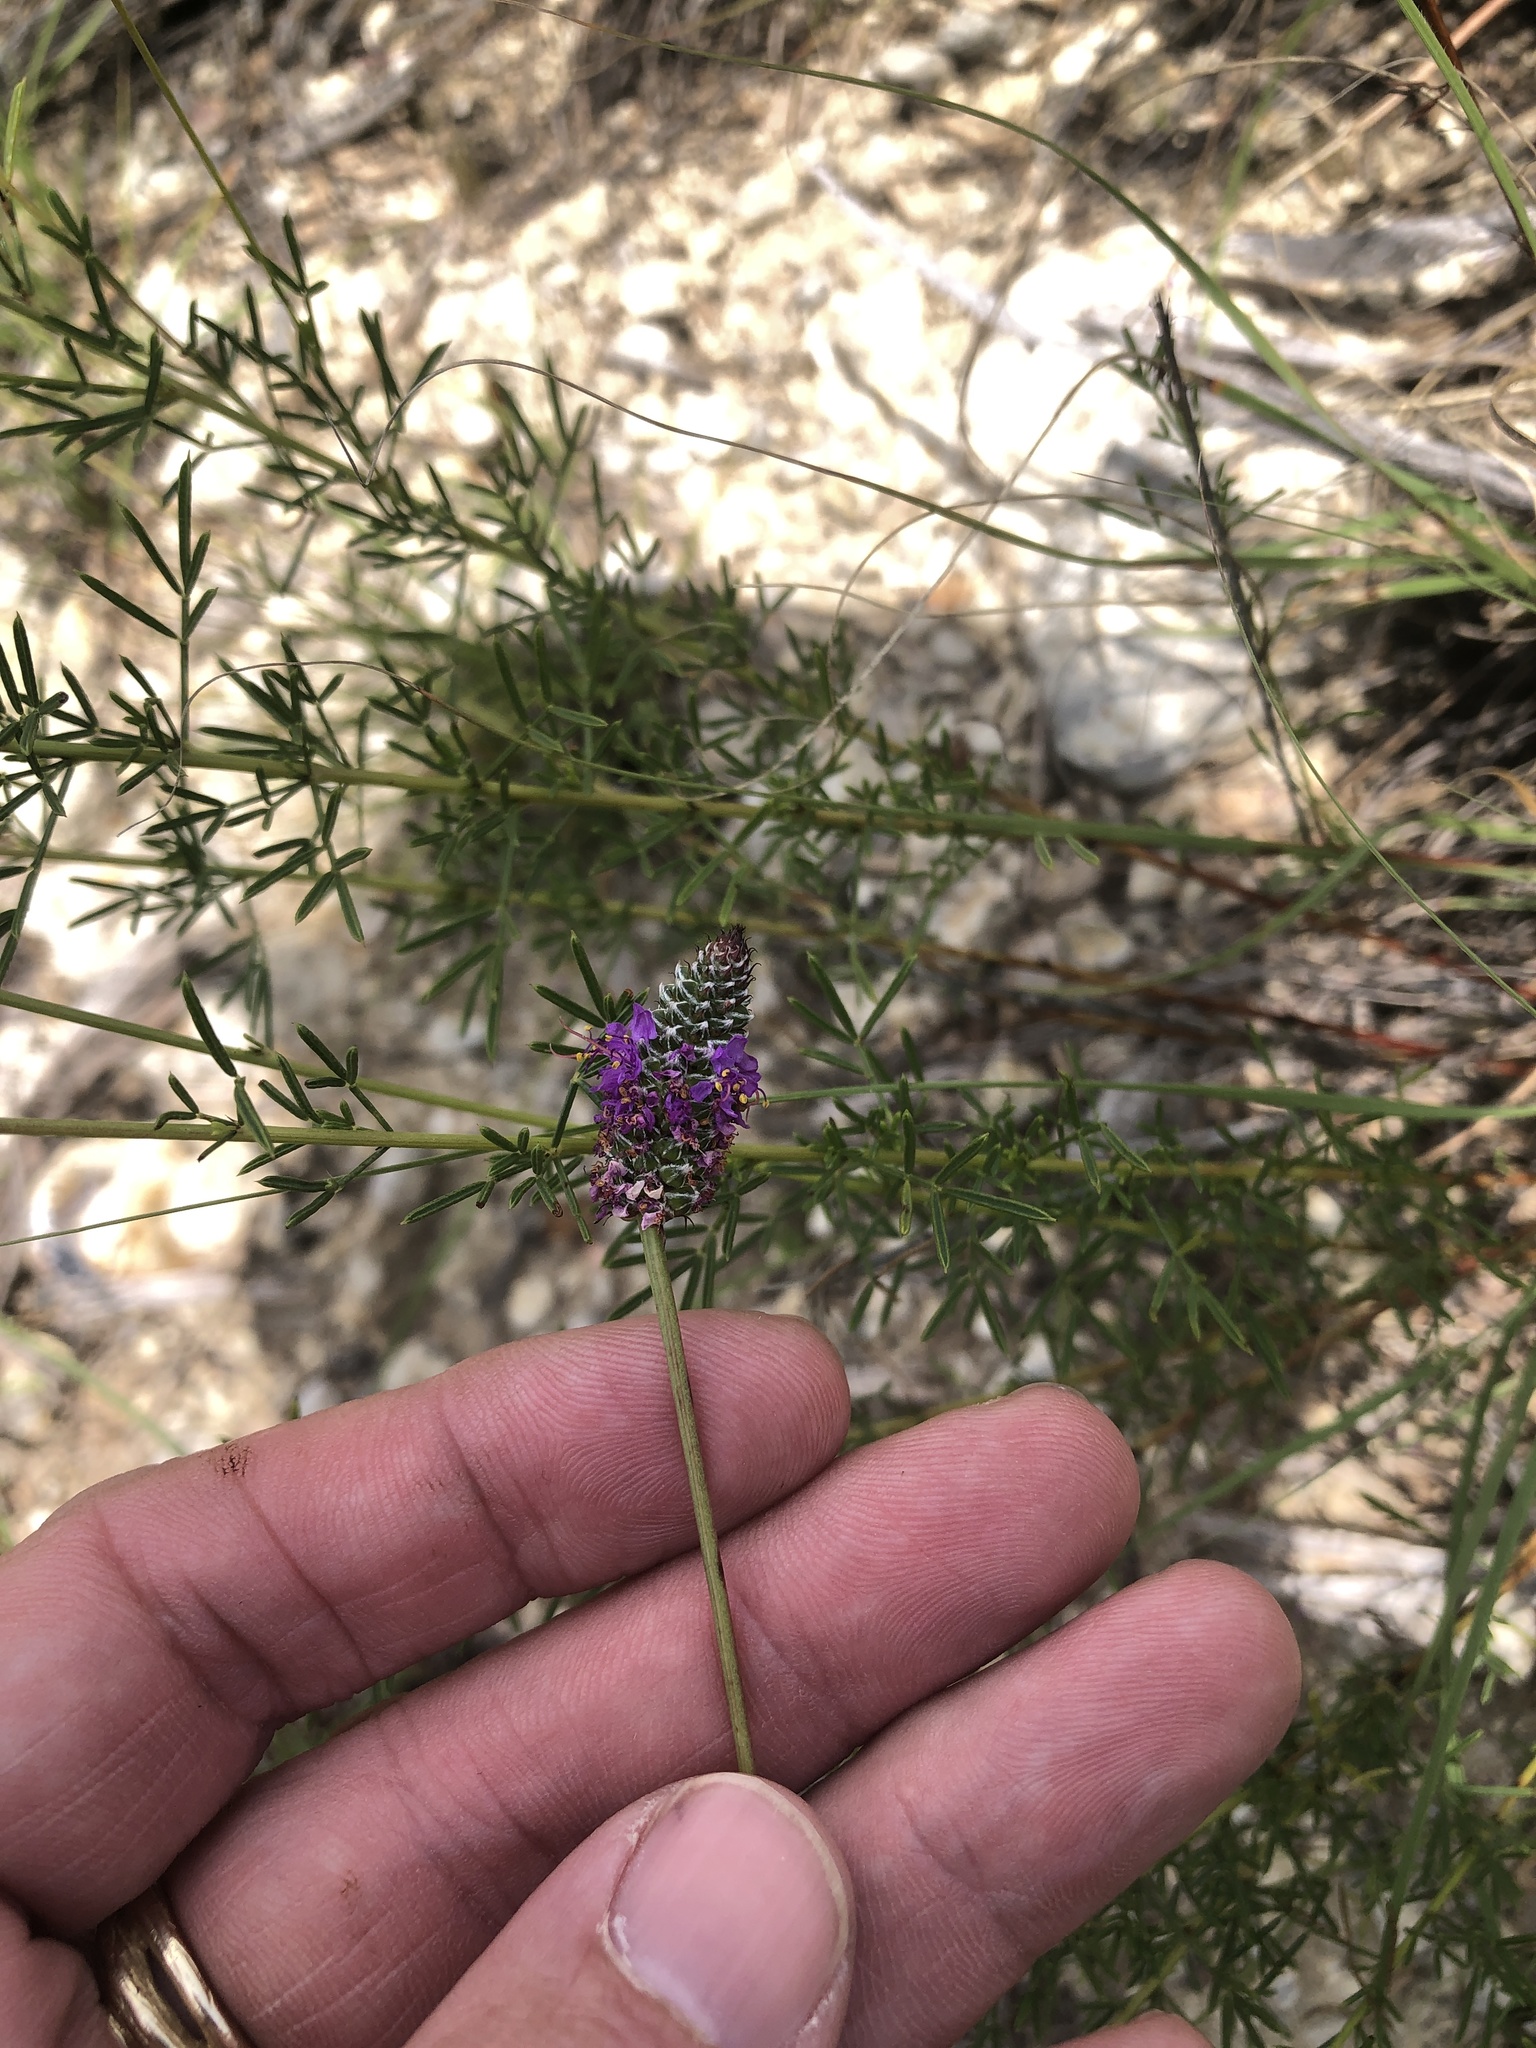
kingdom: Plantae
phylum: Tracheophyta
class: Magnoliopsida
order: Fabales
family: Fabaceae
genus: Dalea
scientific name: Dalea tenuis
